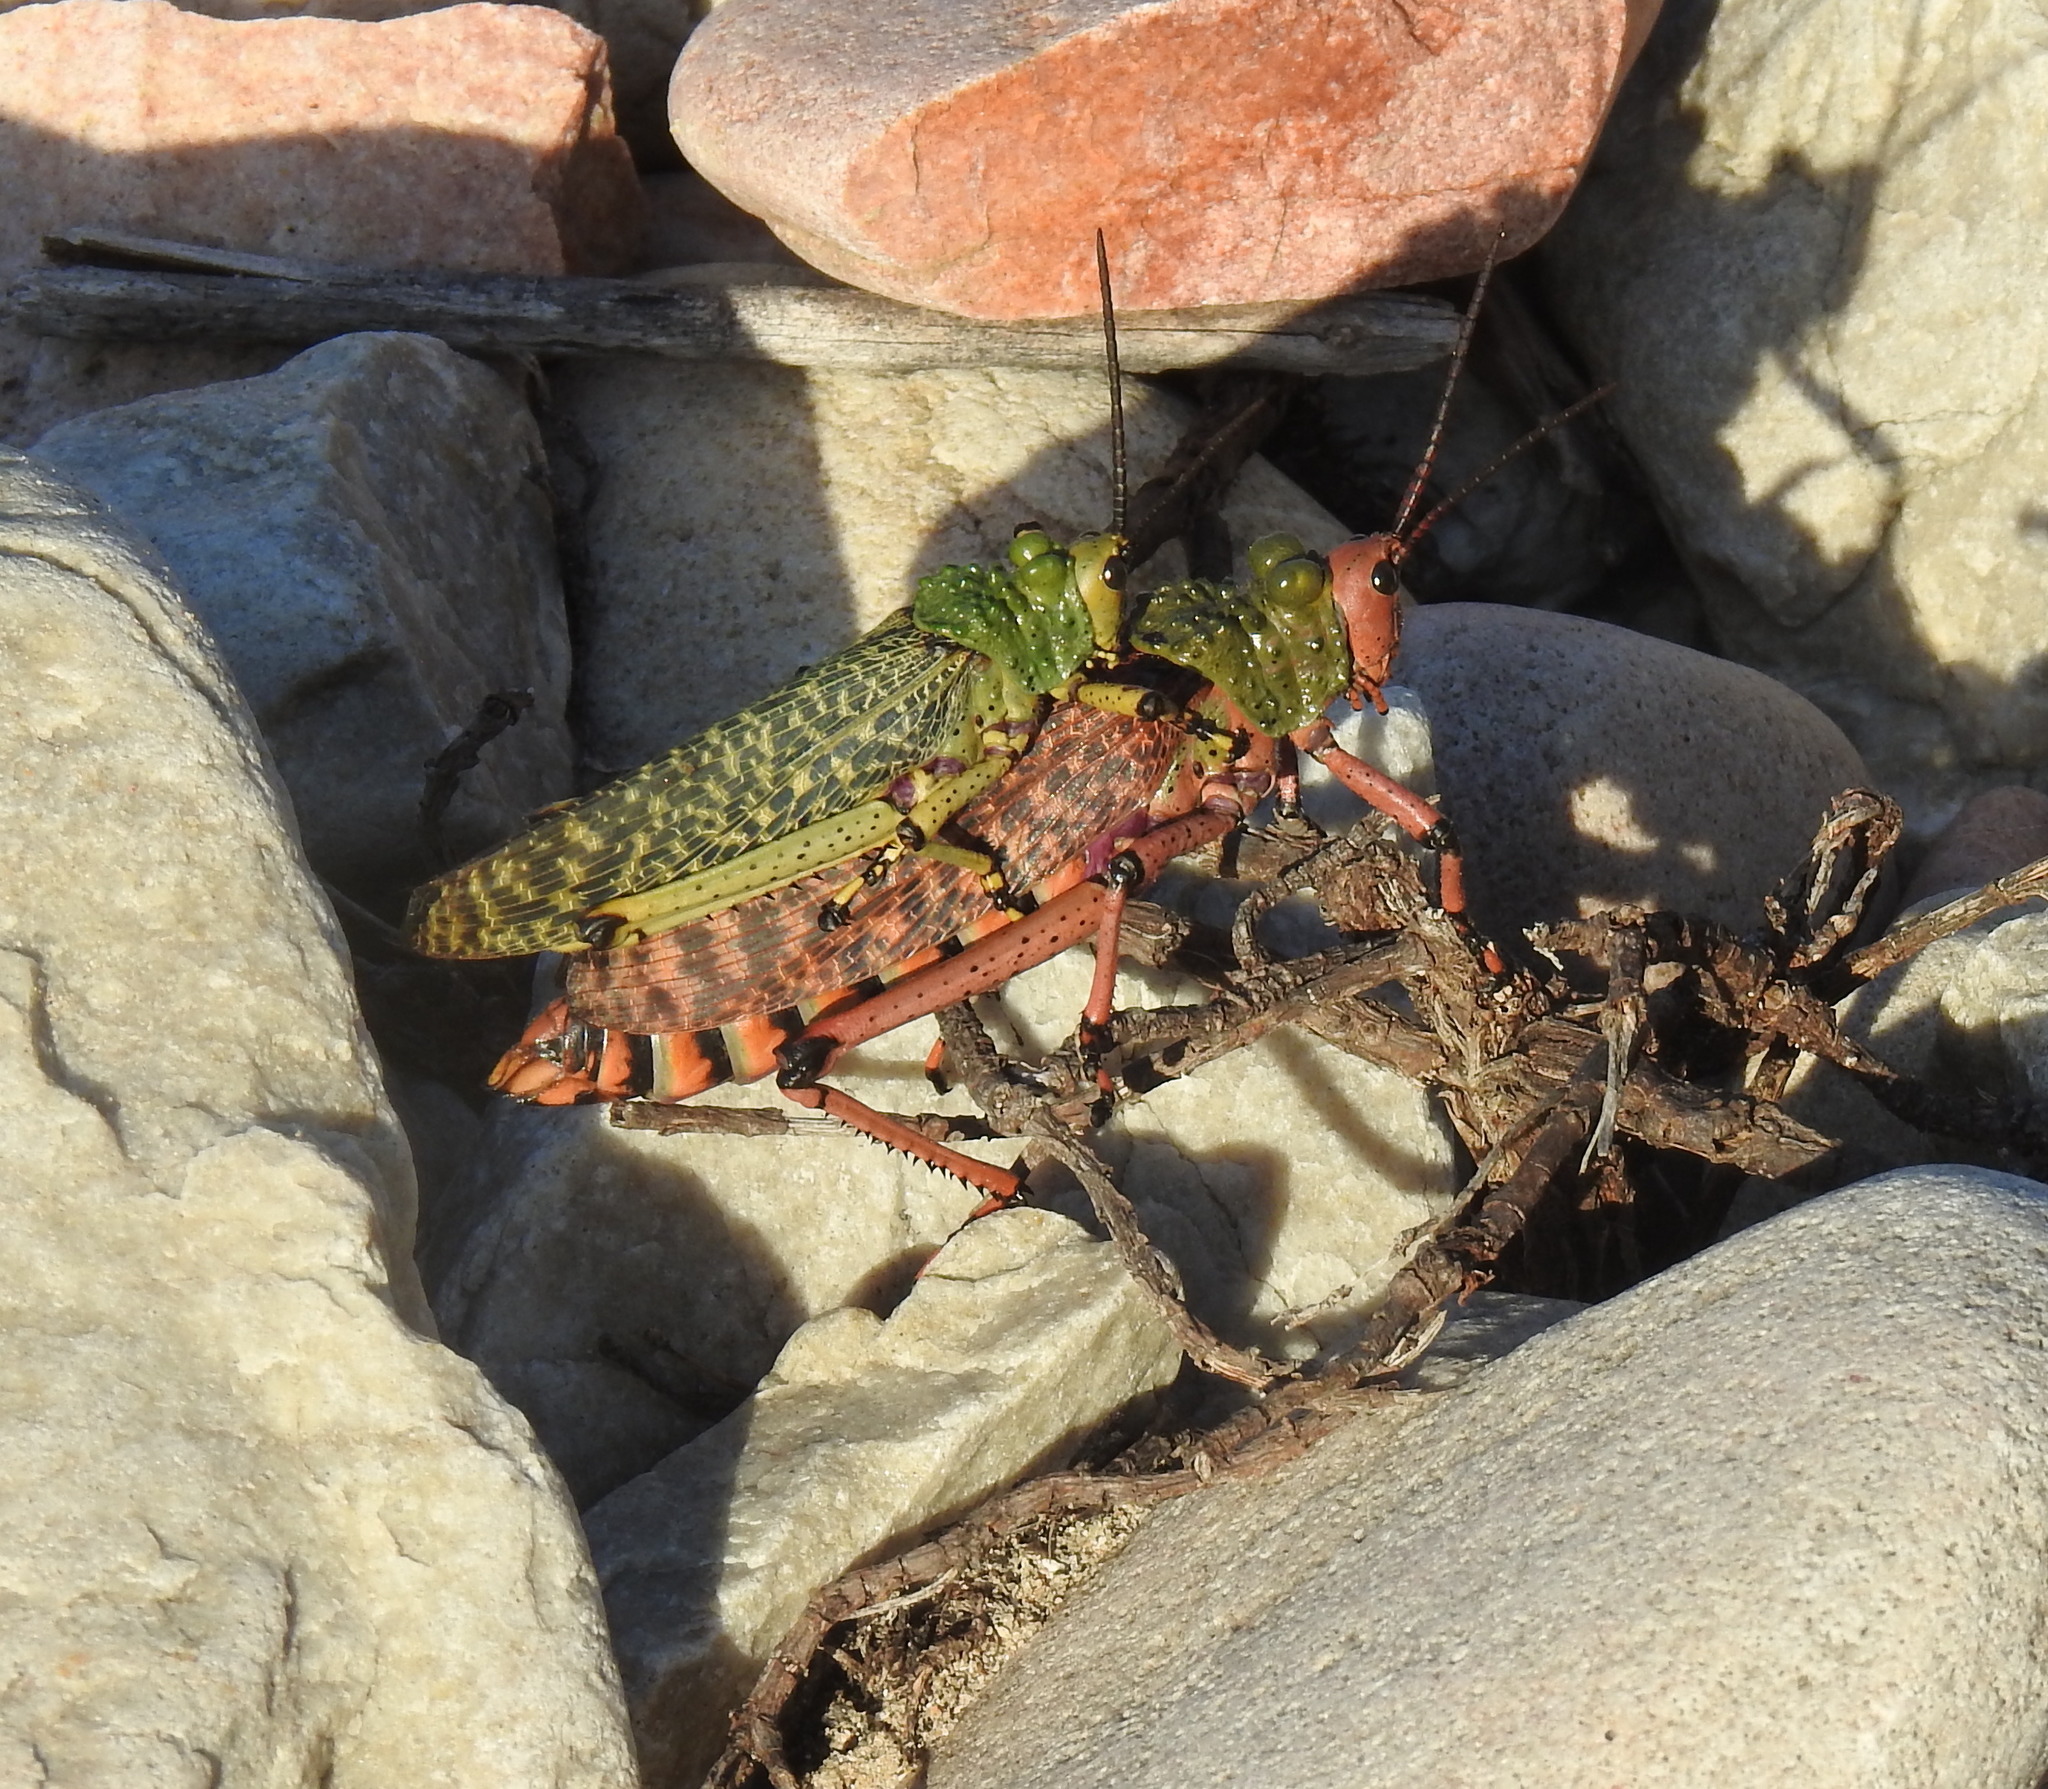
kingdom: Animalia
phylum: Arthropoda
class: Insecta
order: Orthoptera
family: Pyrgomorphidae
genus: Phymateus
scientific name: Phymateus leprosus
